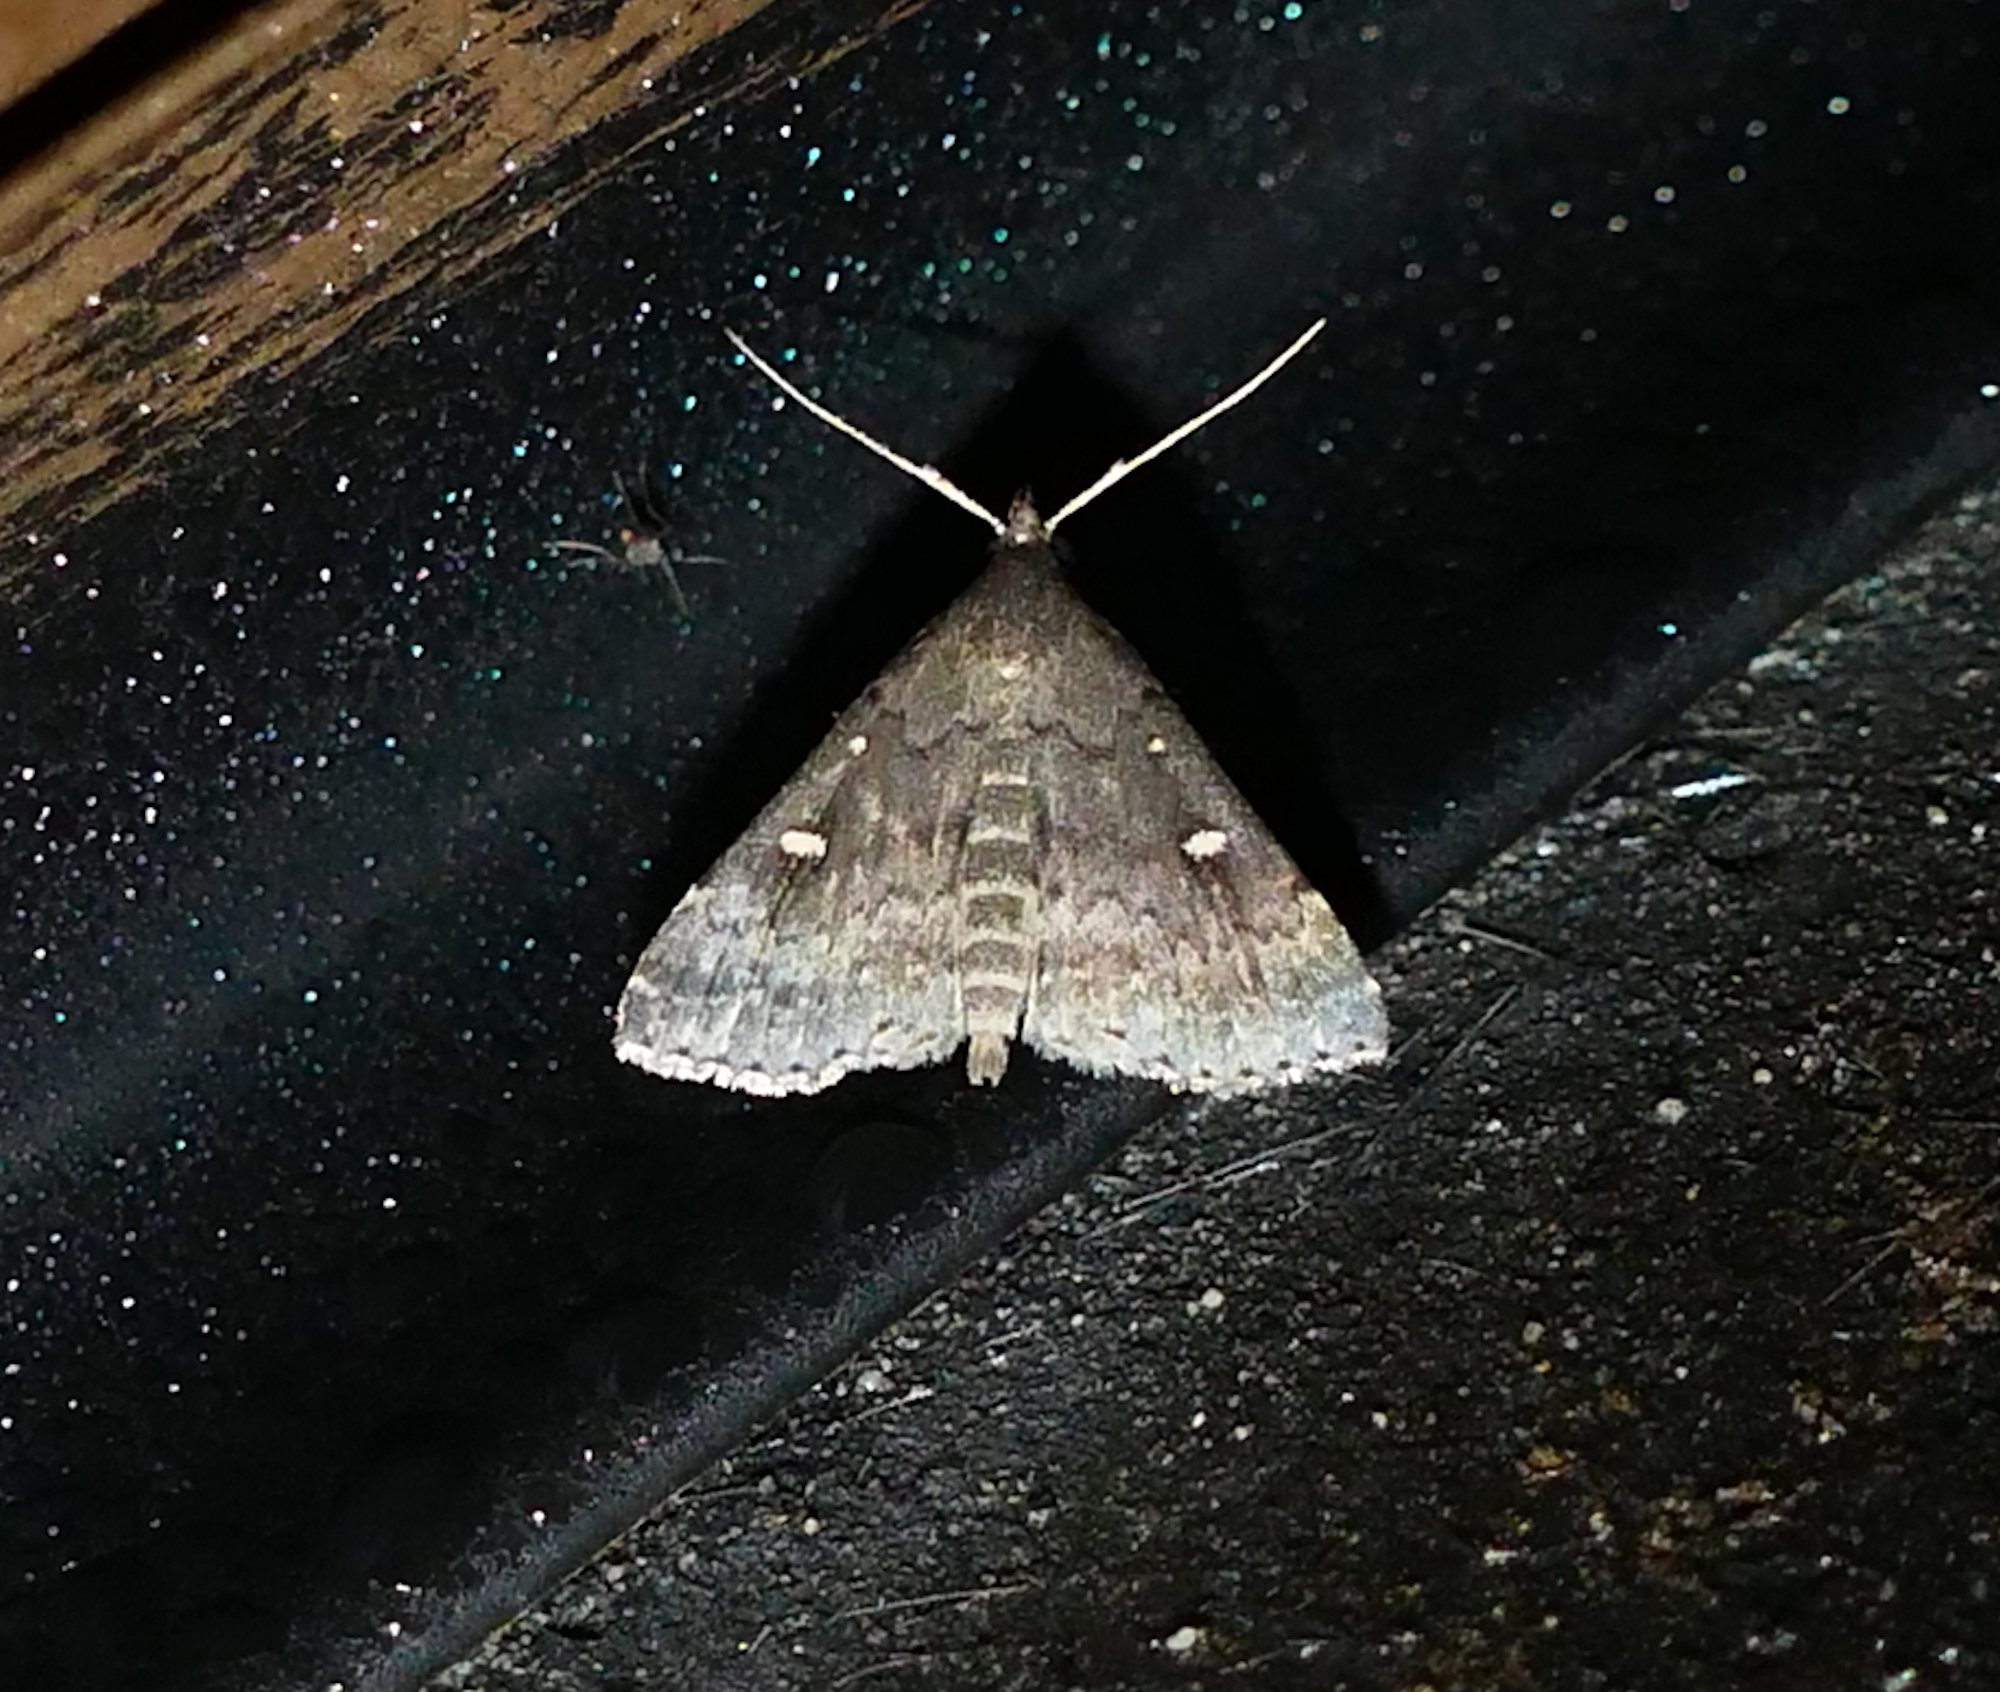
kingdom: Animalia
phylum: Arthropoda
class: Insecta
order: Lepidoptera
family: Erebidae
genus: Tetanolita
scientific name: Tetanolita mynesalis
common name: Smoky tetanolita moth
